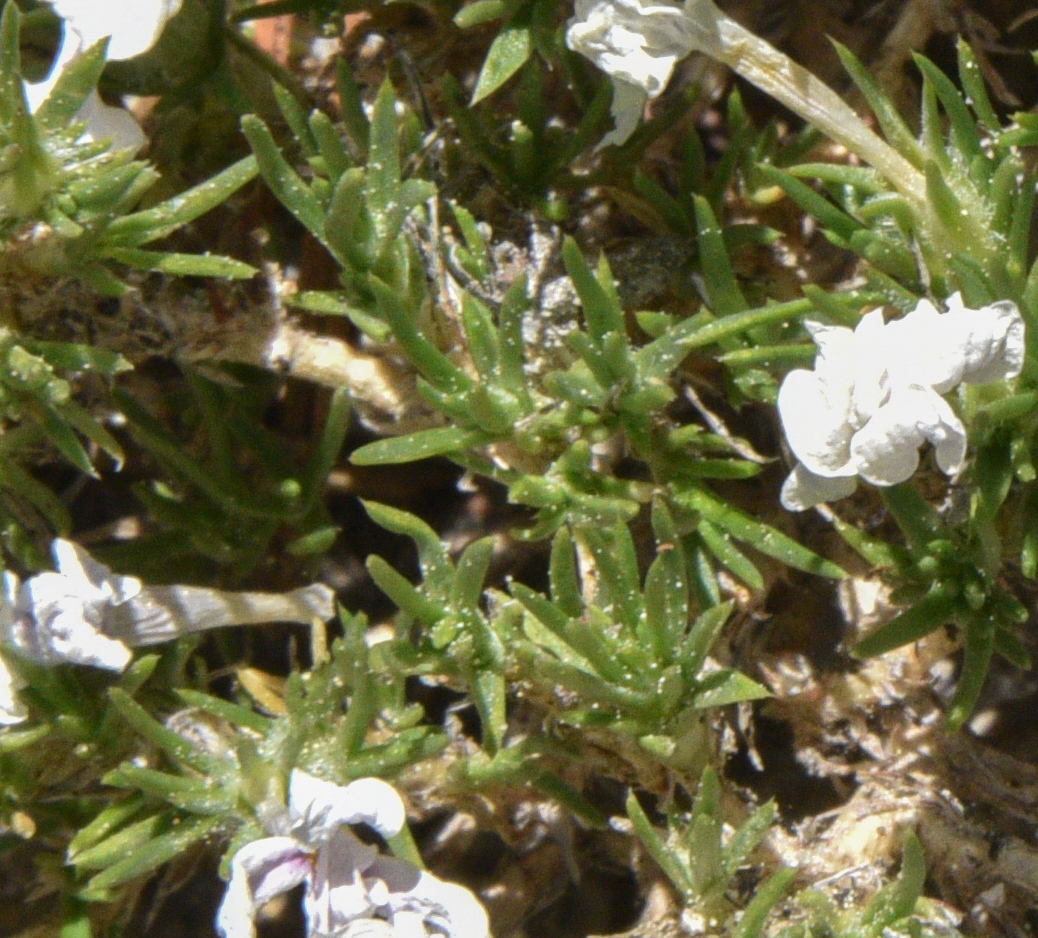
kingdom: Plantae
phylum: Tracheophyta
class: Magnoliopsida
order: Ericales
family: Polemoniaceae
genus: Phlox
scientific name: Phlox diffusa
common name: Mat phlox
